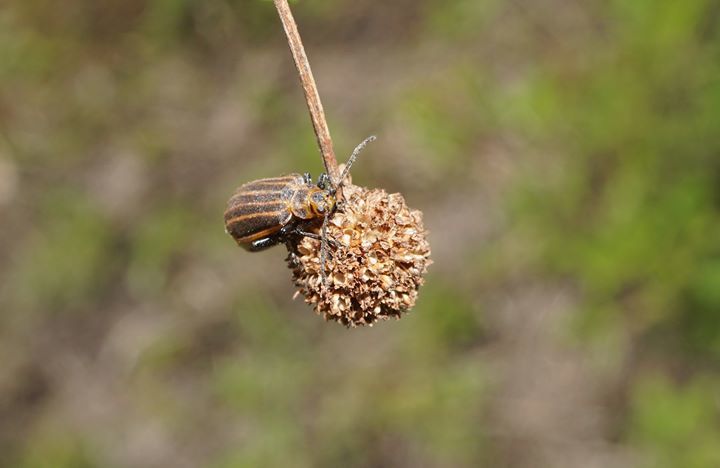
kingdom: Animalia
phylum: Arthropoda
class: Insecta
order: Coleoptera
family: Chrysomelidae
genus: Neolochmaea
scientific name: Neolochmaea dilatipennis
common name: Skeletonizing leaf beetle
